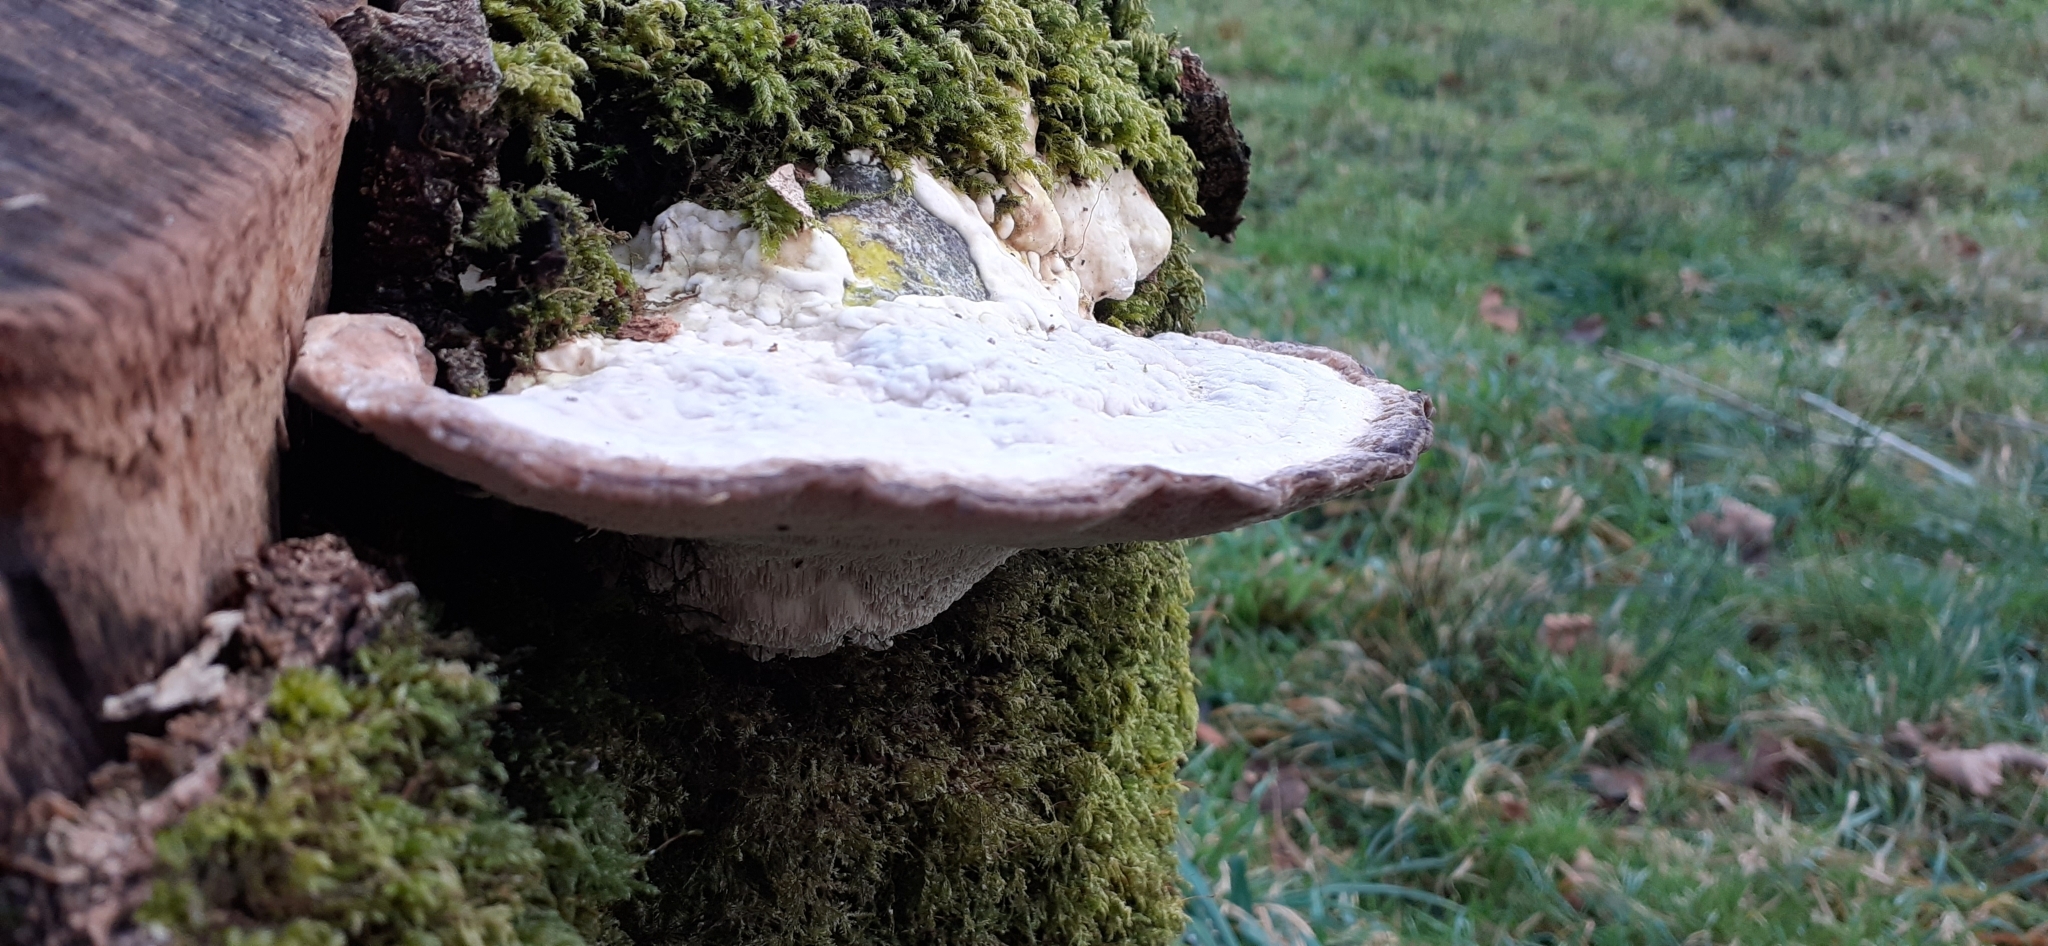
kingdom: Fungi
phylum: Basidiomycota
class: Agaricomycetes
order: Polyporales
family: Polyporaceae
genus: Trametes
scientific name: Trametes gibbosa
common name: Lumpy bracket
